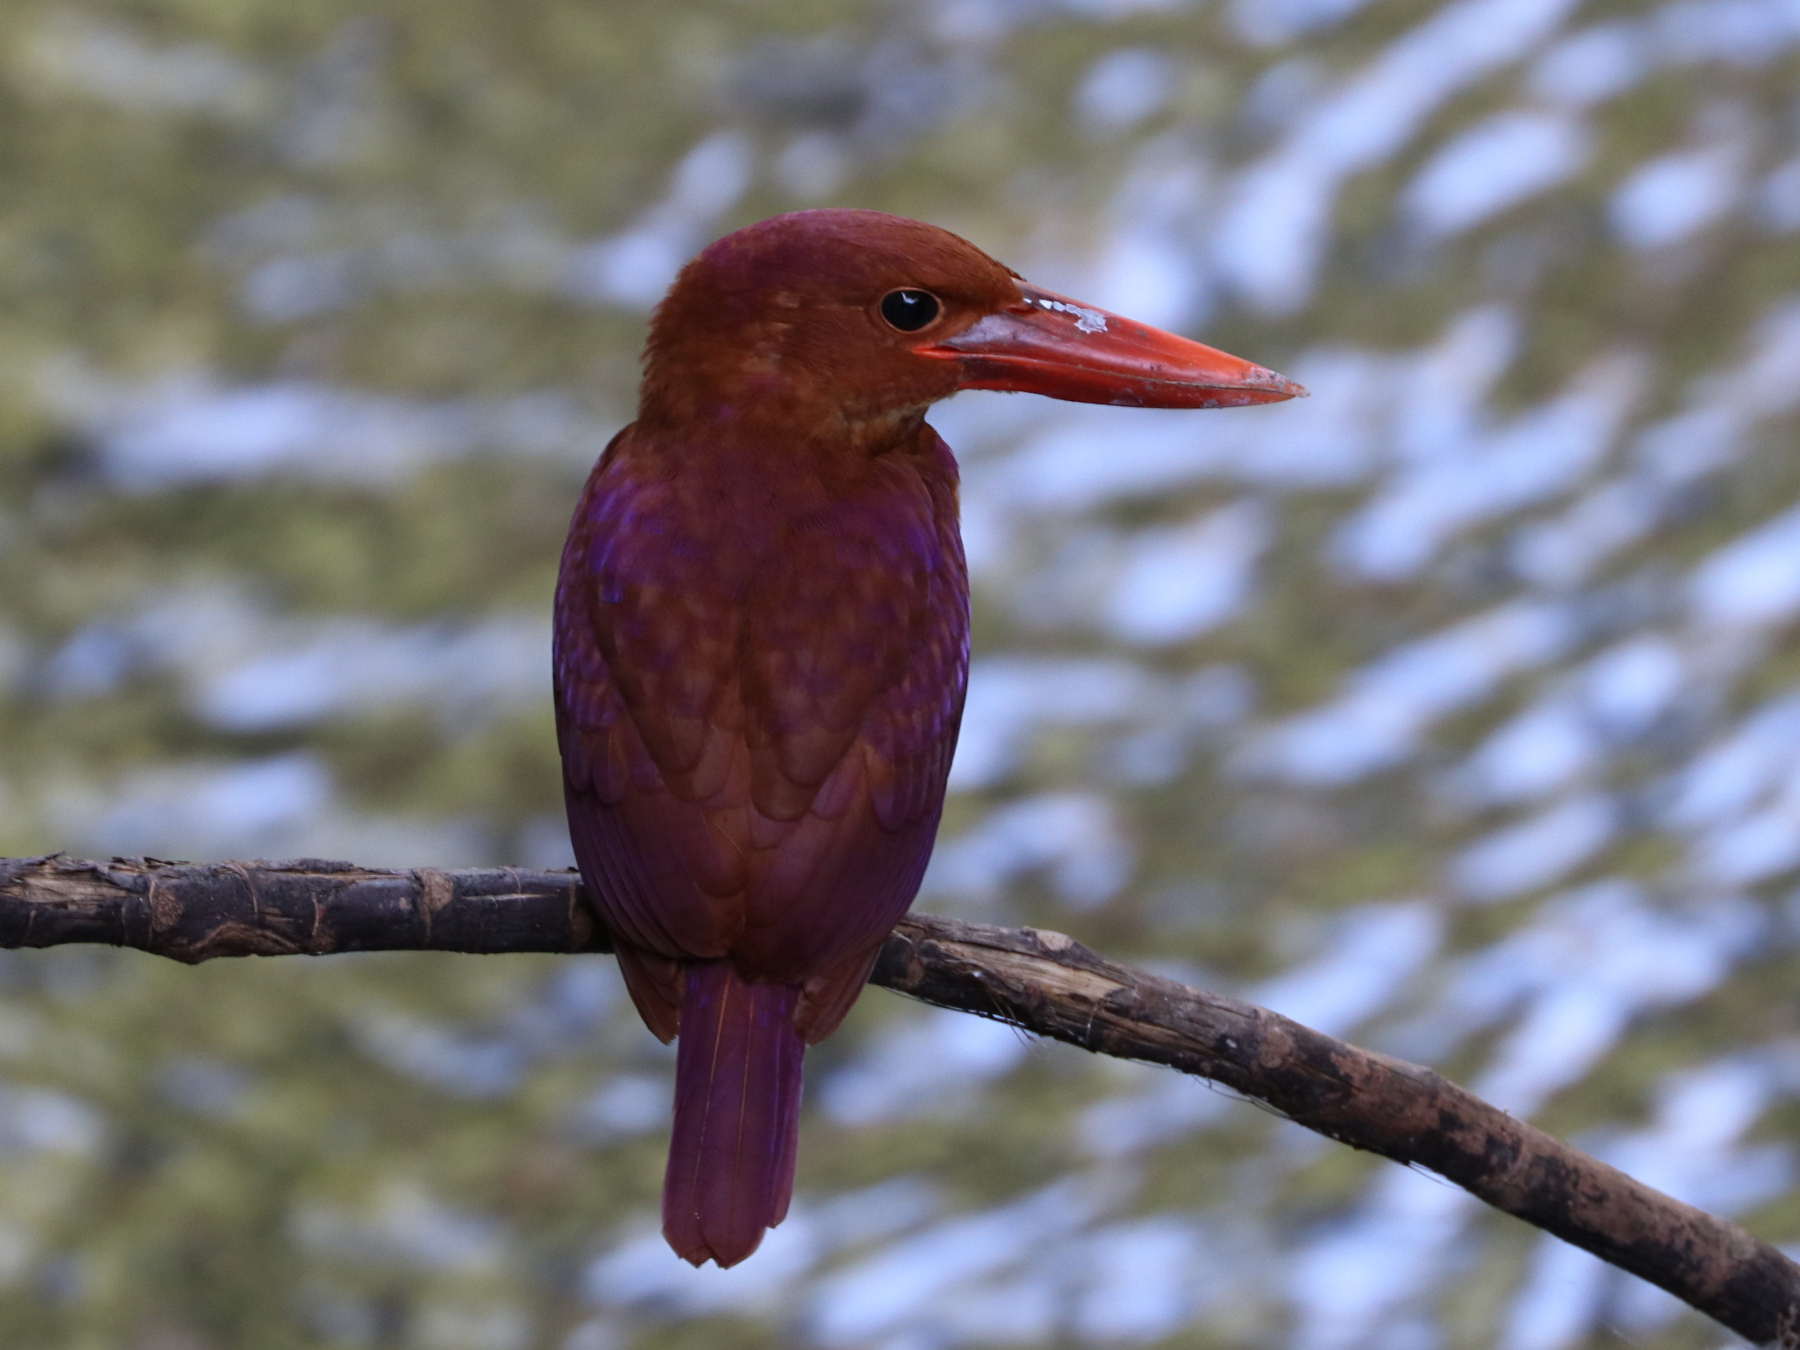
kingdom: Animalia
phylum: Chordata
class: Aves
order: Coraciiformes
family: Alcedinidae
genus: Halcyon
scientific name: Halcyon coromanda
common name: Ruddy kingfisher
